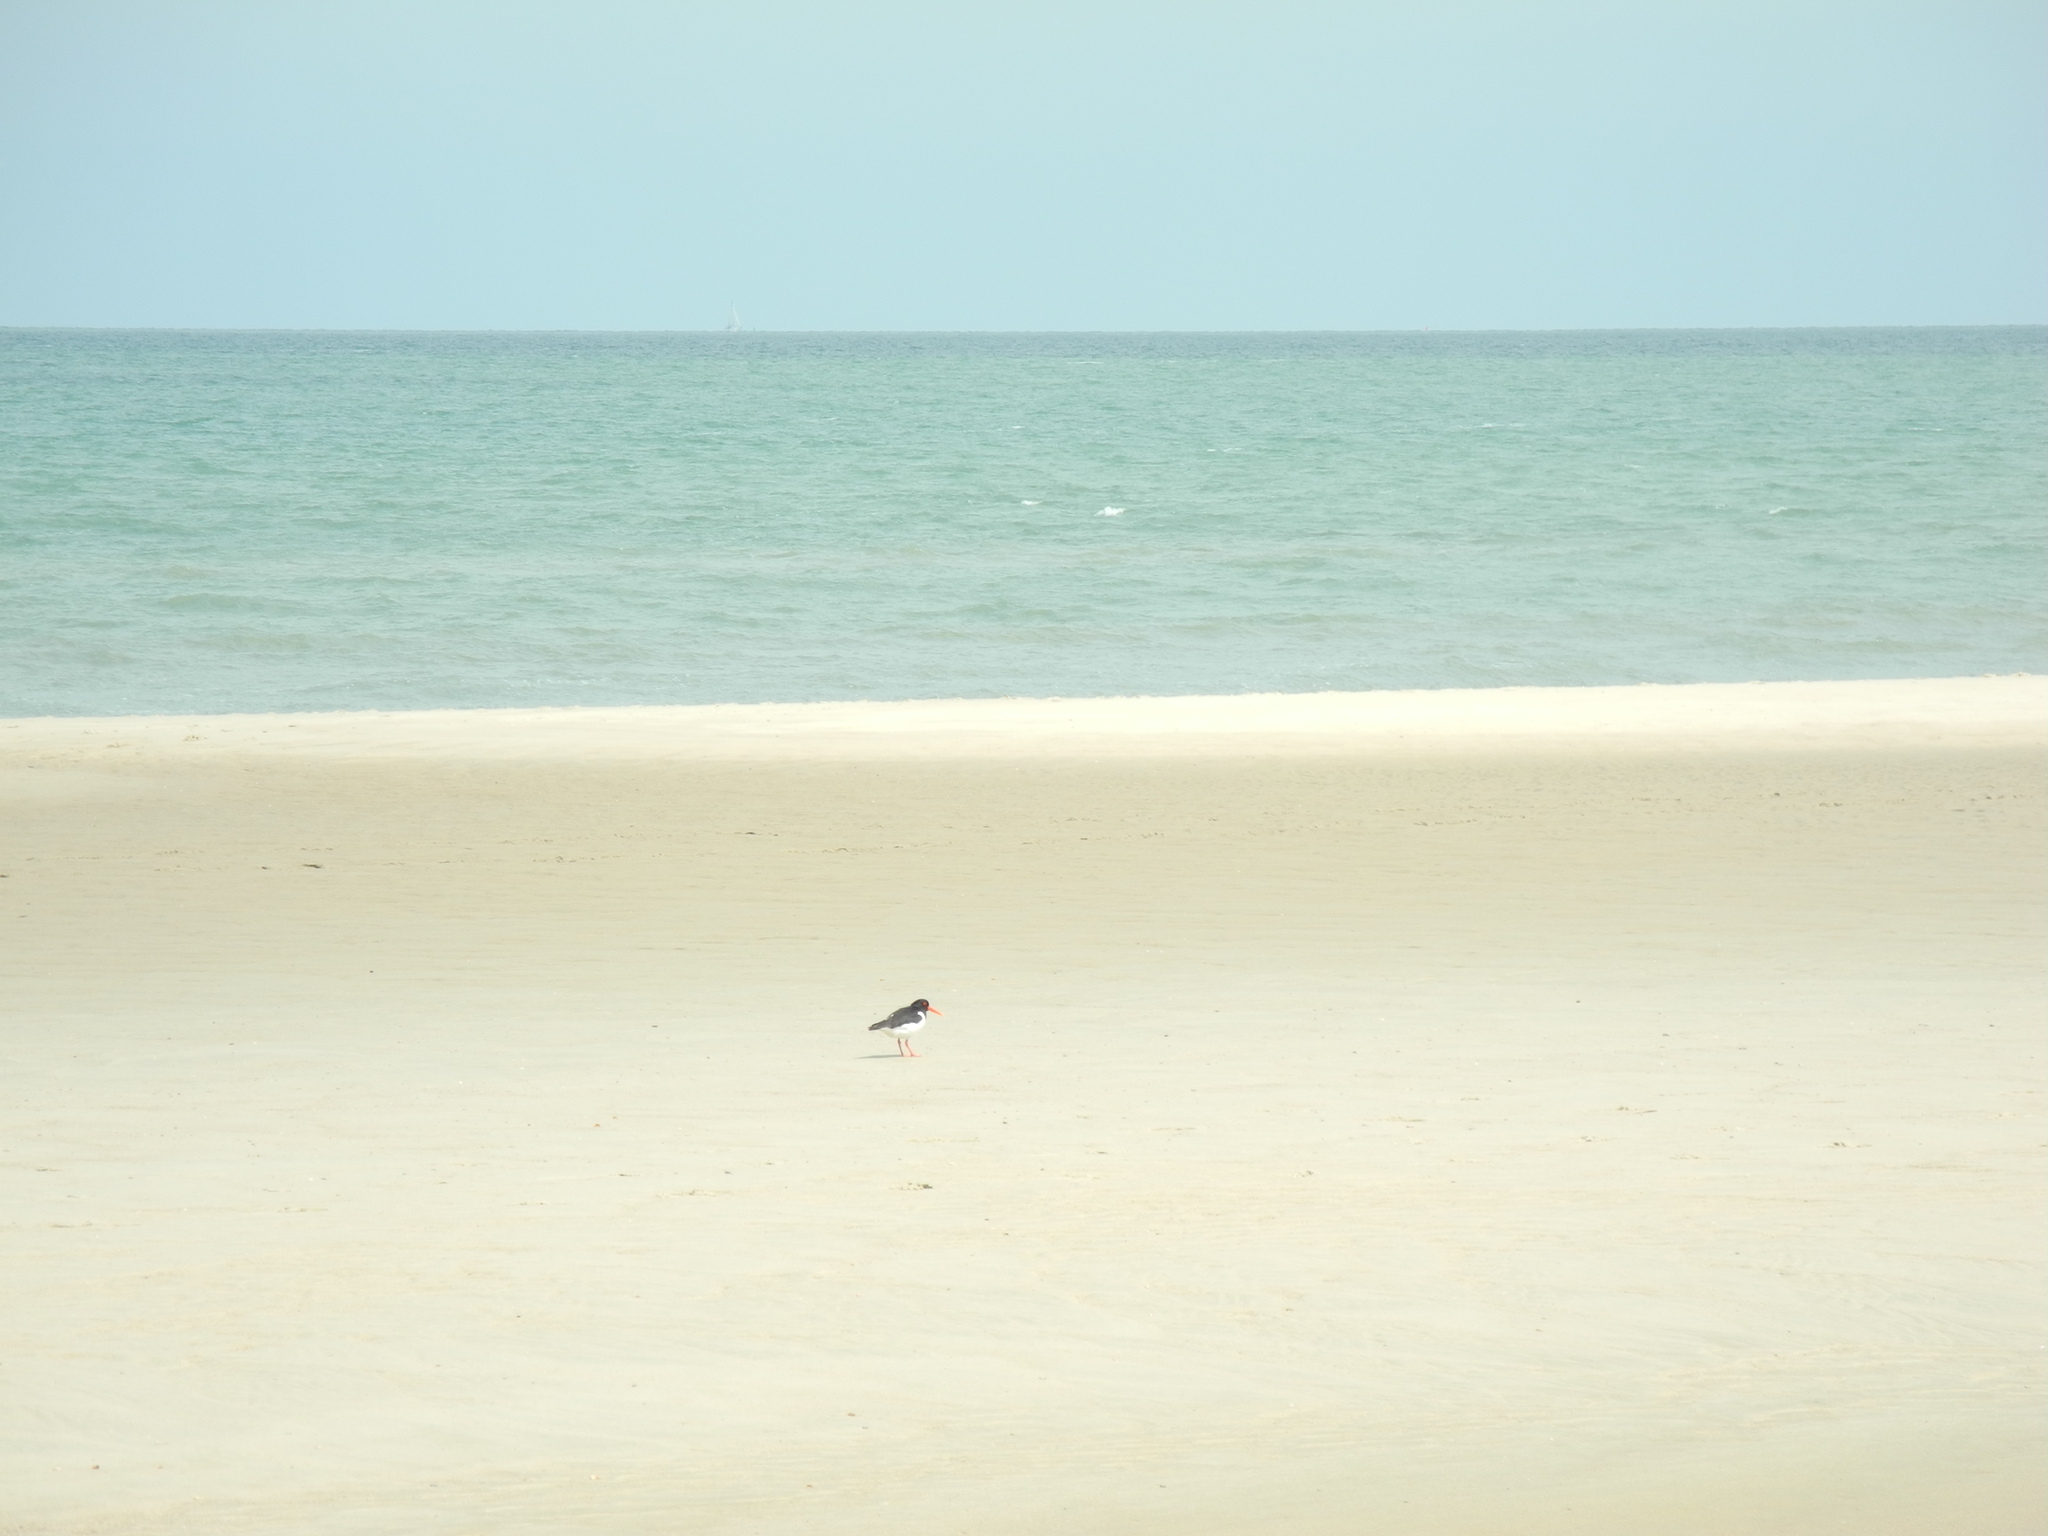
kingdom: Animalia
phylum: Chordata
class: Aves
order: Charadriiformes
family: Haematopodidae
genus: Haematopus
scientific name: Haematopus ostralegus
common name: Eurasian oystercatcher
